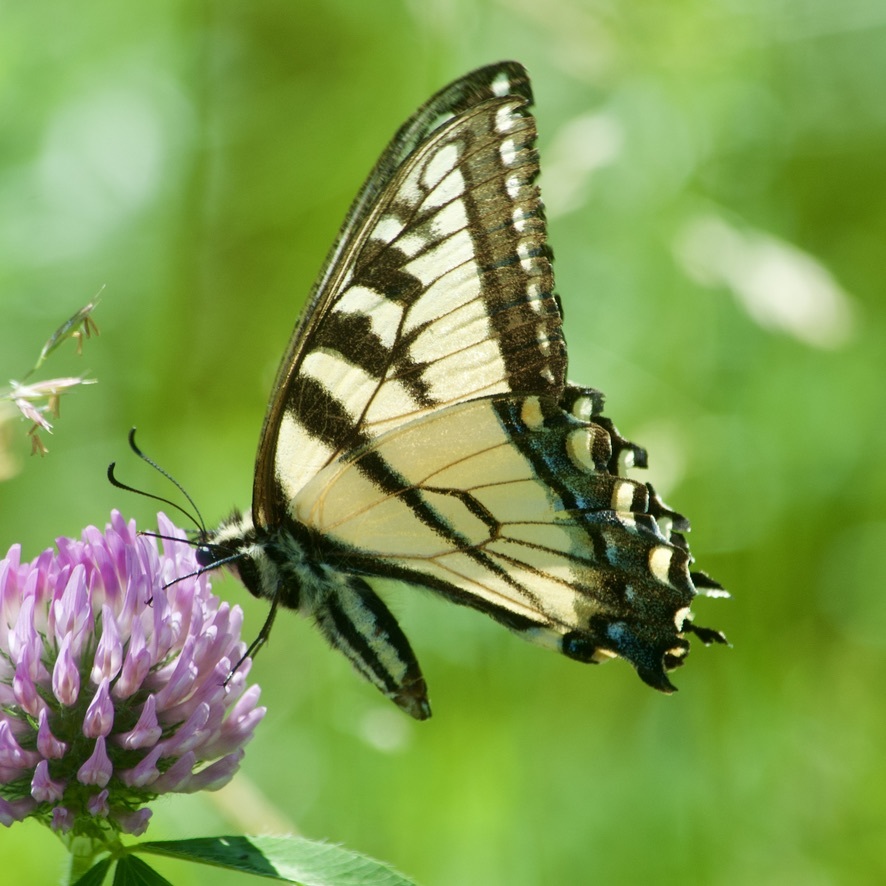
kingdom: Animalia
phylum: Arthropoda
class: Insecta
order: Lepidoptera
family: Papilionidae
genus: Papilio
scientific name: Papilio
